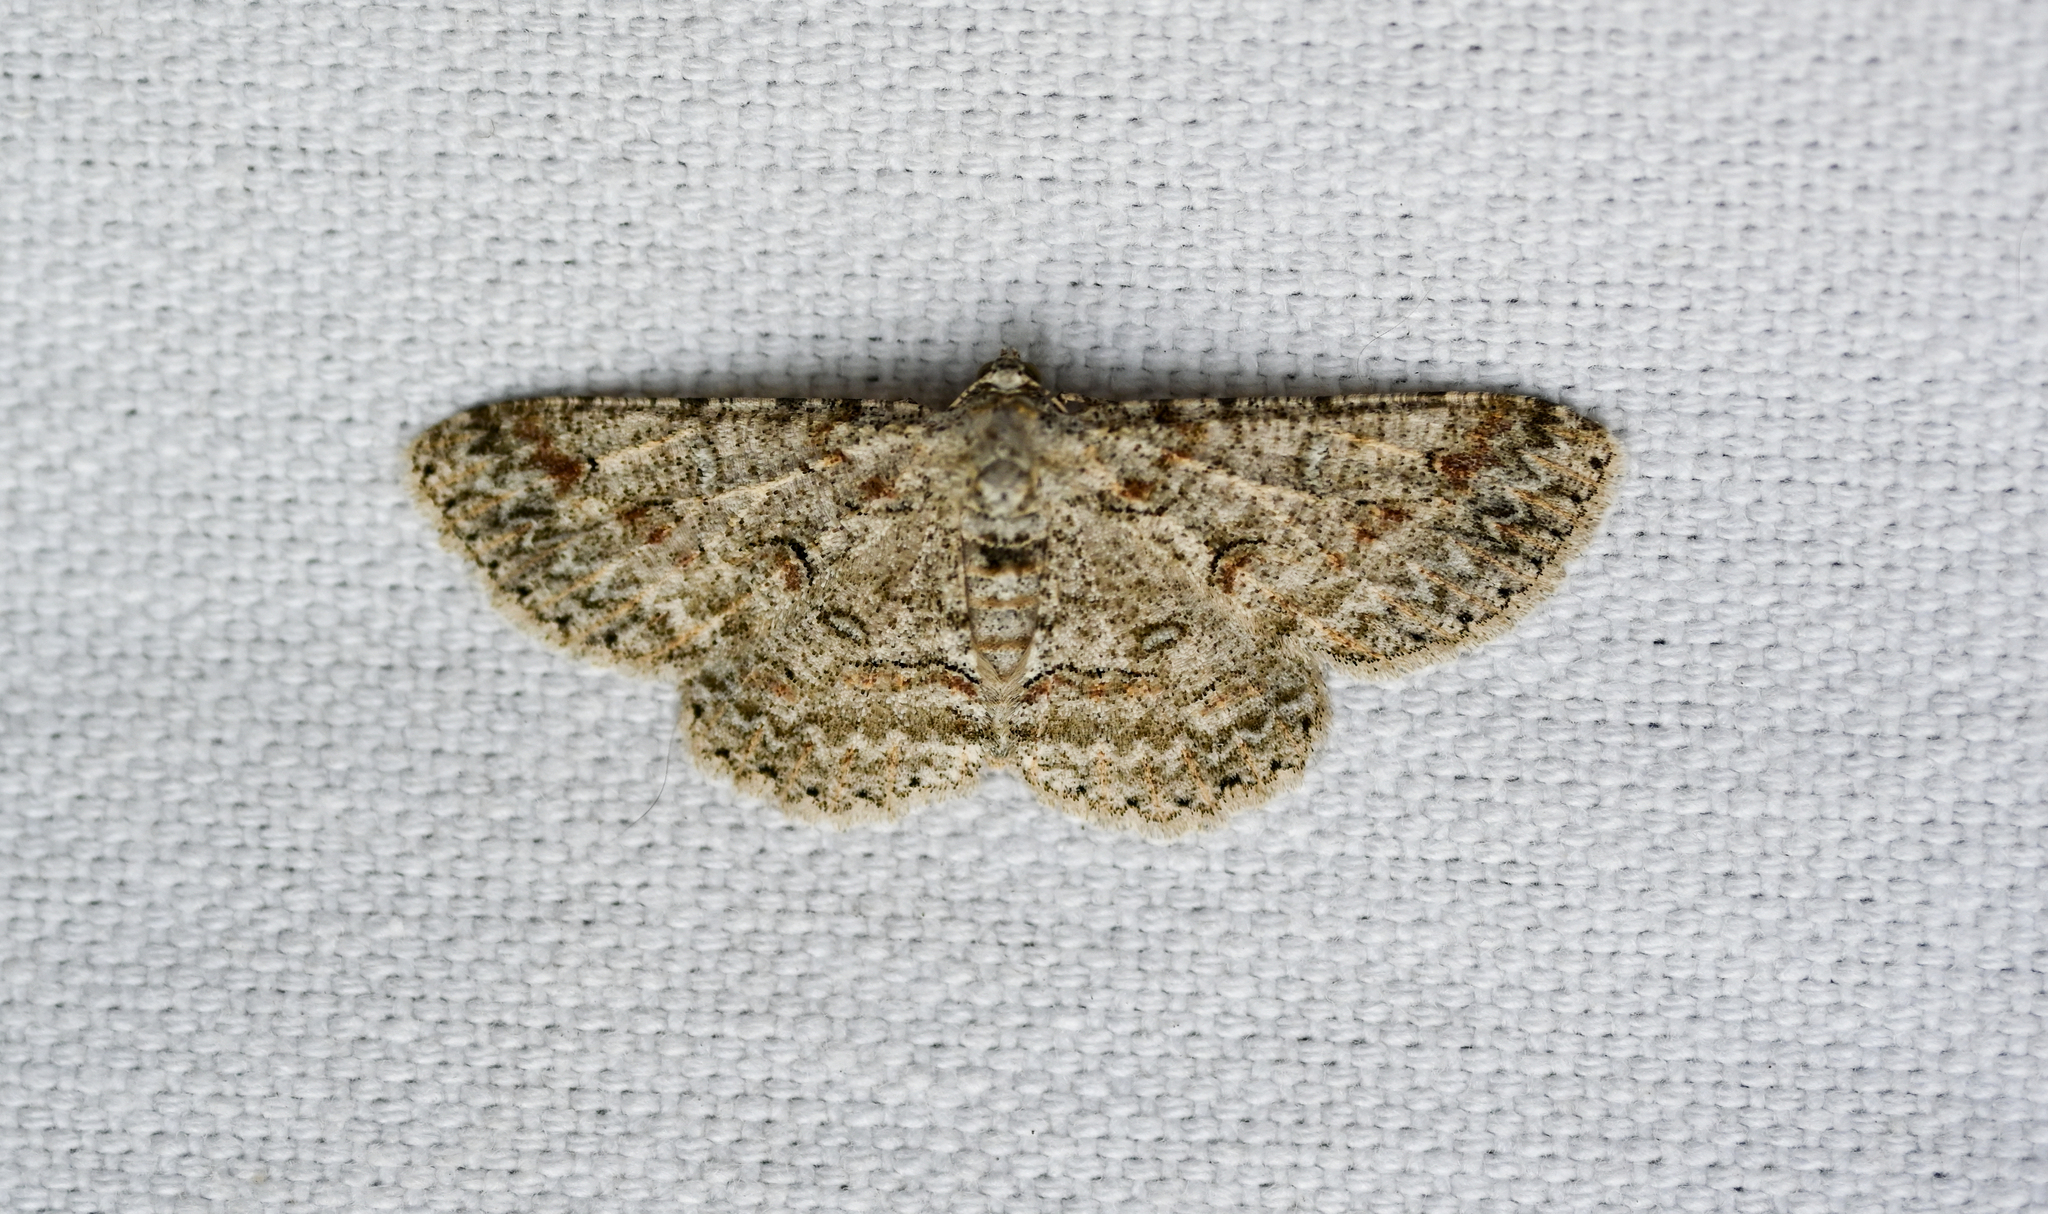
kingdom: Animalia
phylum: Arthropoda
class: Insecta
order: Lepidoptera
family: Geometridae
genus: Iridopsis
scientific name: Iridopsis defectaria
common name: Brown-shaded gray
